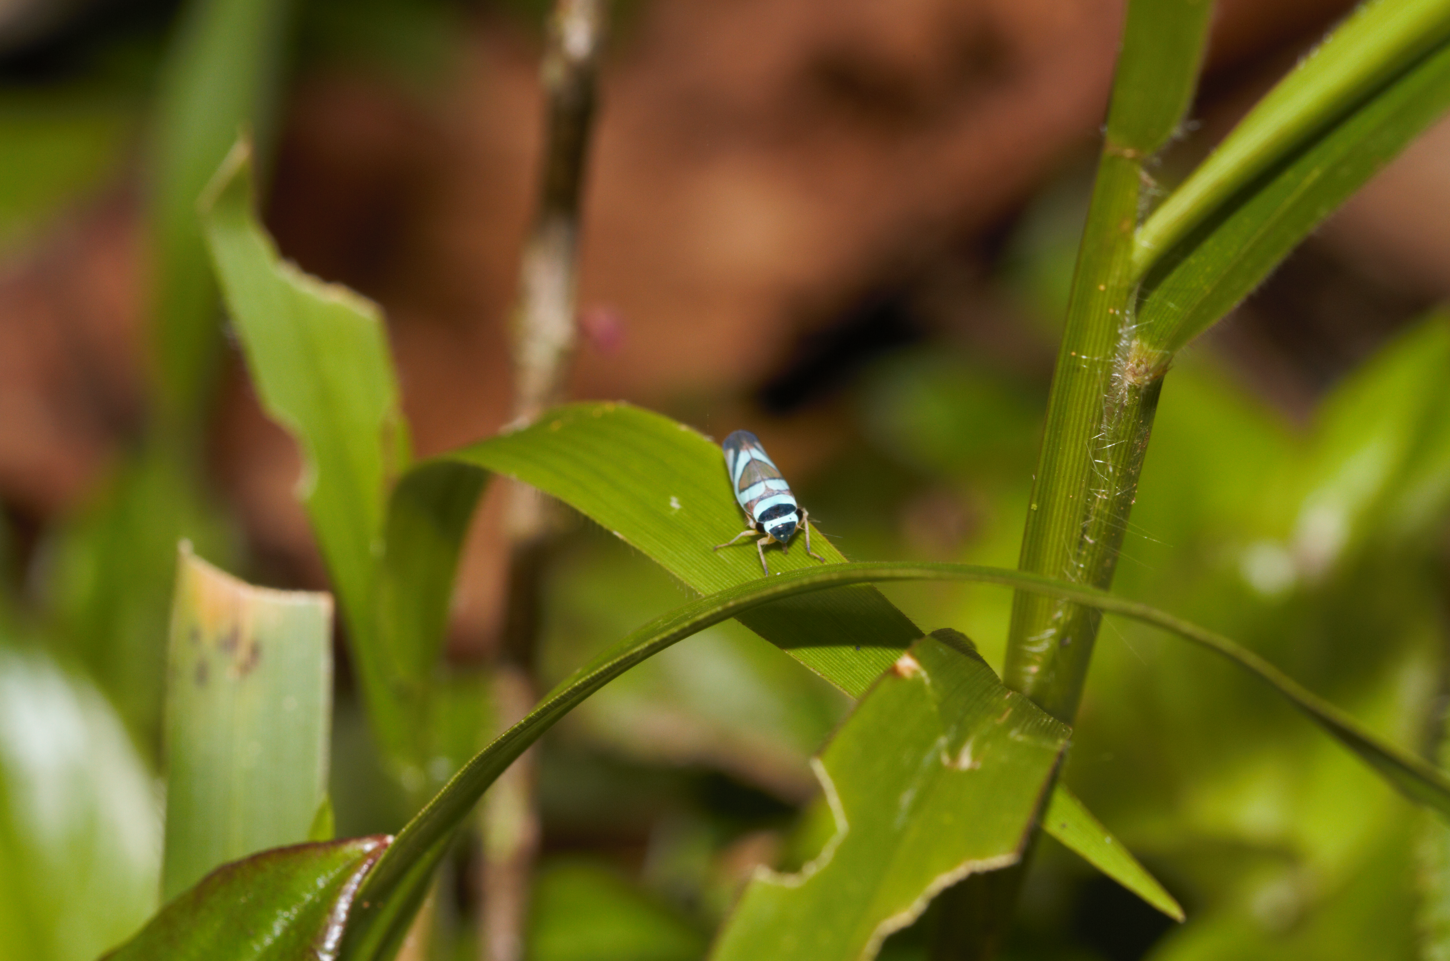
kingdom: Animalia
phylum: Arthropoda
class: Insecta
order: Hemiptera
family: Cicadellidae
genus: Macugonalia
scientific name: Macugonalia moesta
